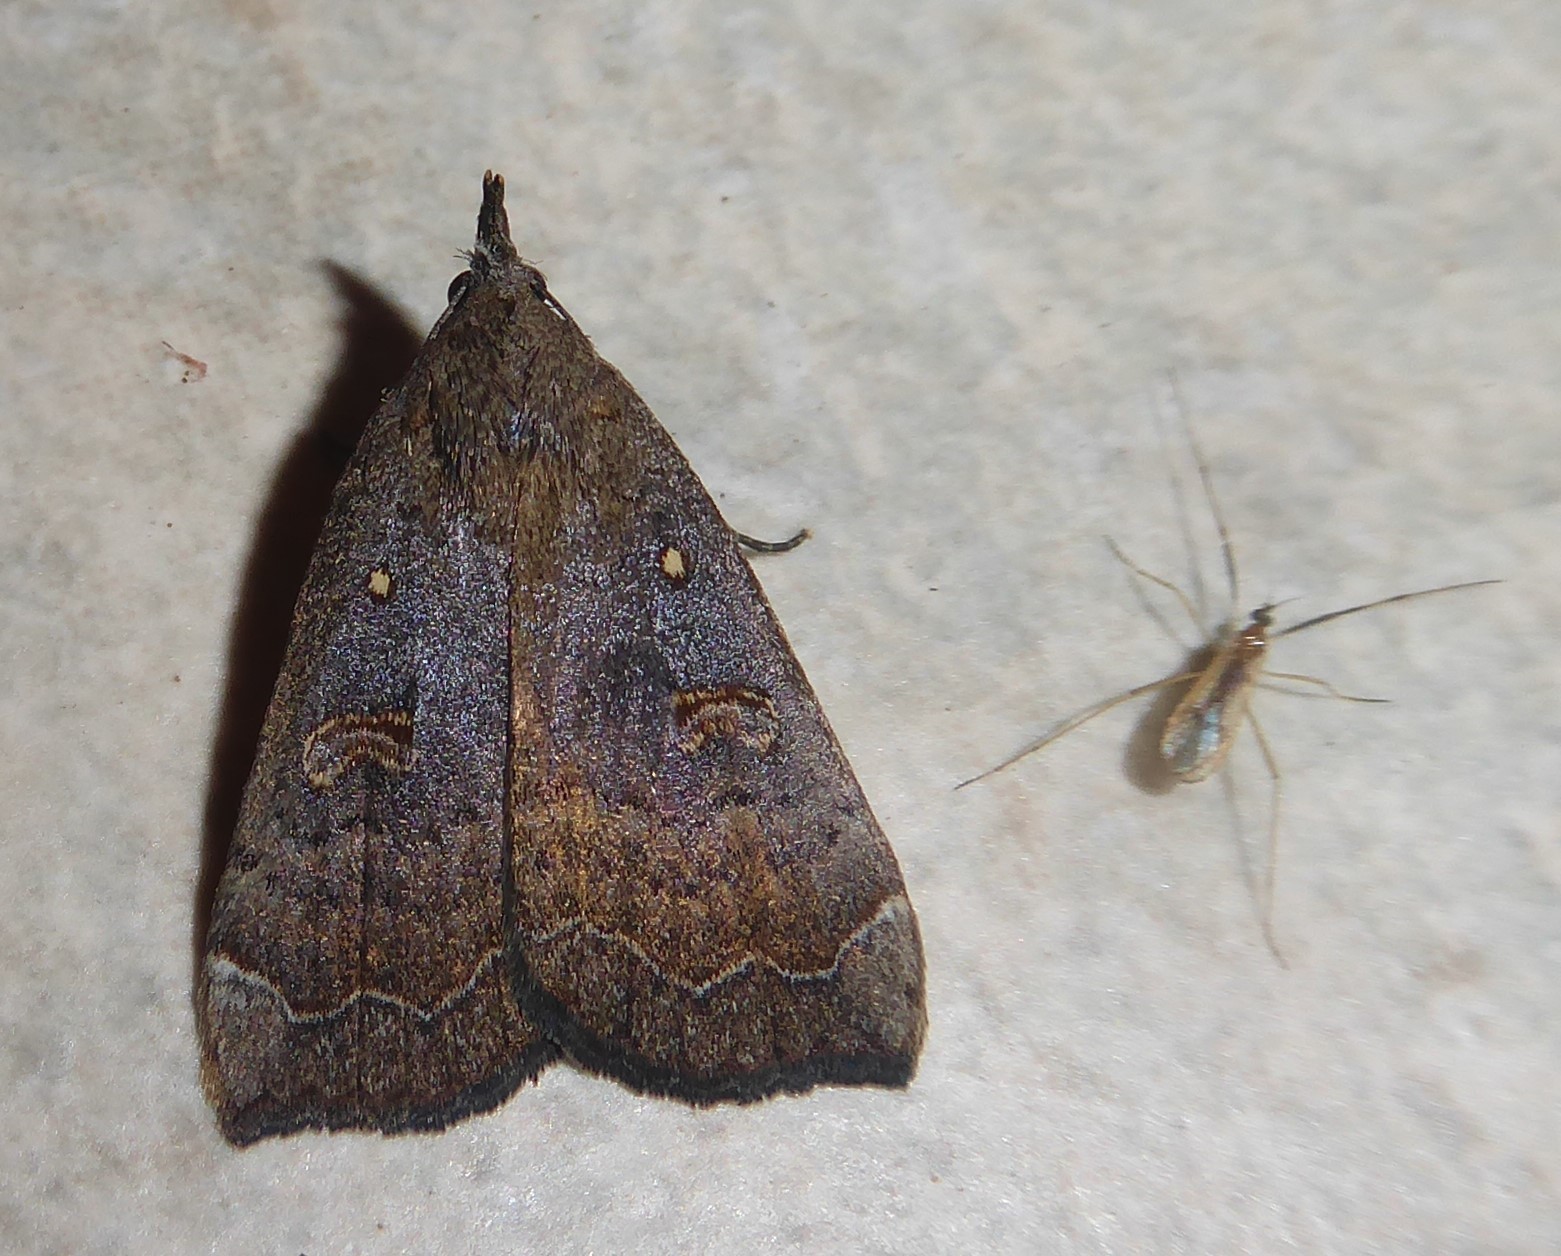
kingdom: Animalia
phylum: Arthropoda
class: Insecta
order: Lepidoptera
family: Erebidae
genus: Rhapsa
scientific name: Rhapsa scotosialis
